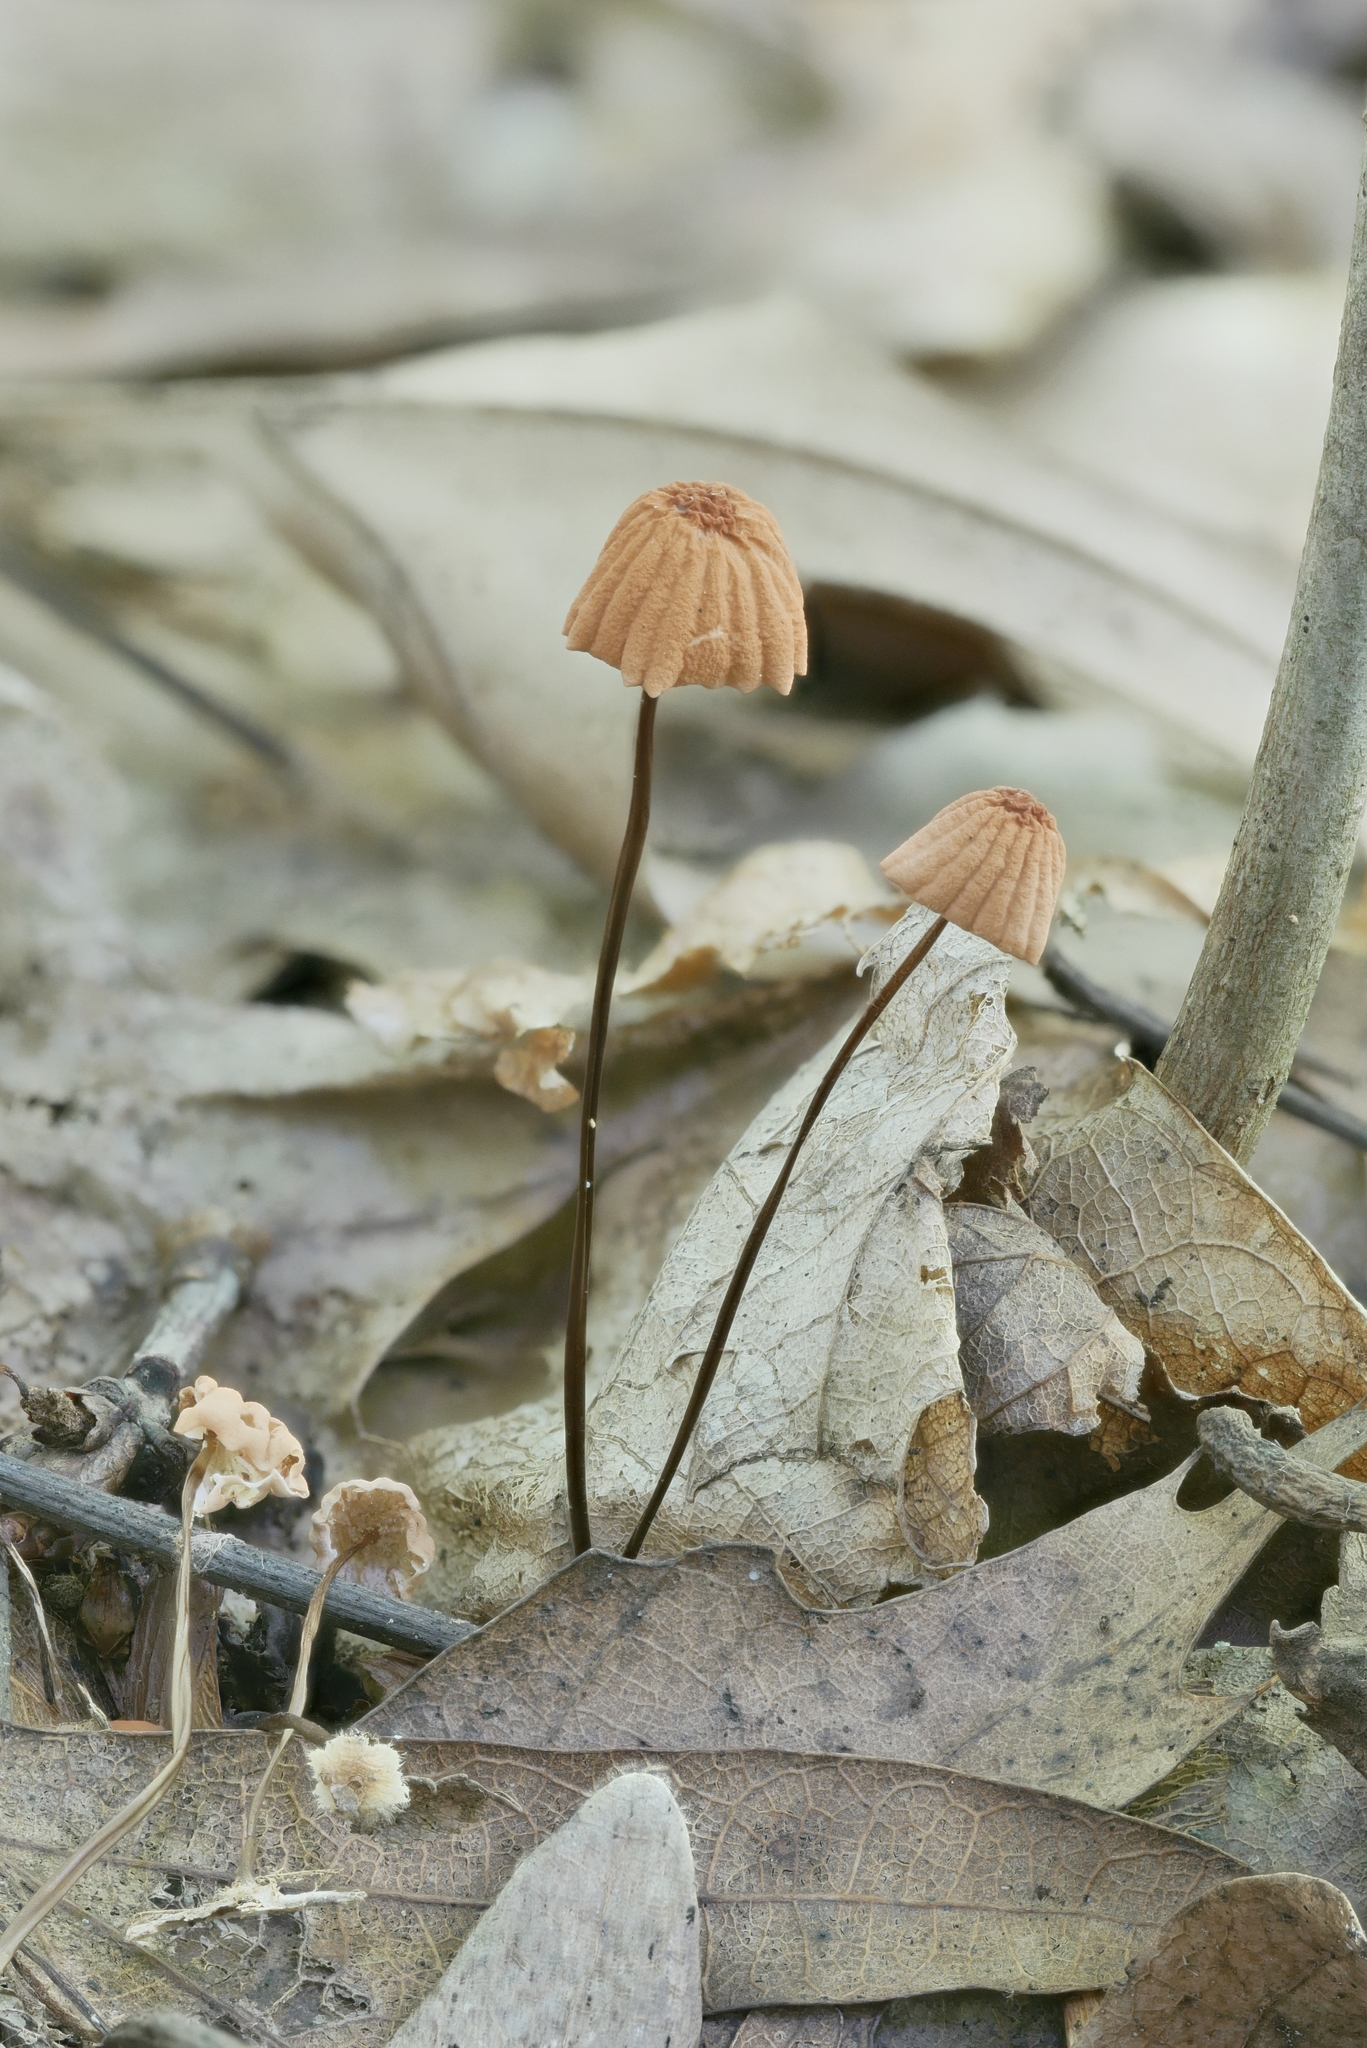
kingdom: Fungi
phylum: Basidiomycota
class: Agaricomycetes
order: Agaricales
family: Marasmiaceae
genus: Marasmius
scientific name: Marasmius pulcherripes
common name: Rosy parachute
